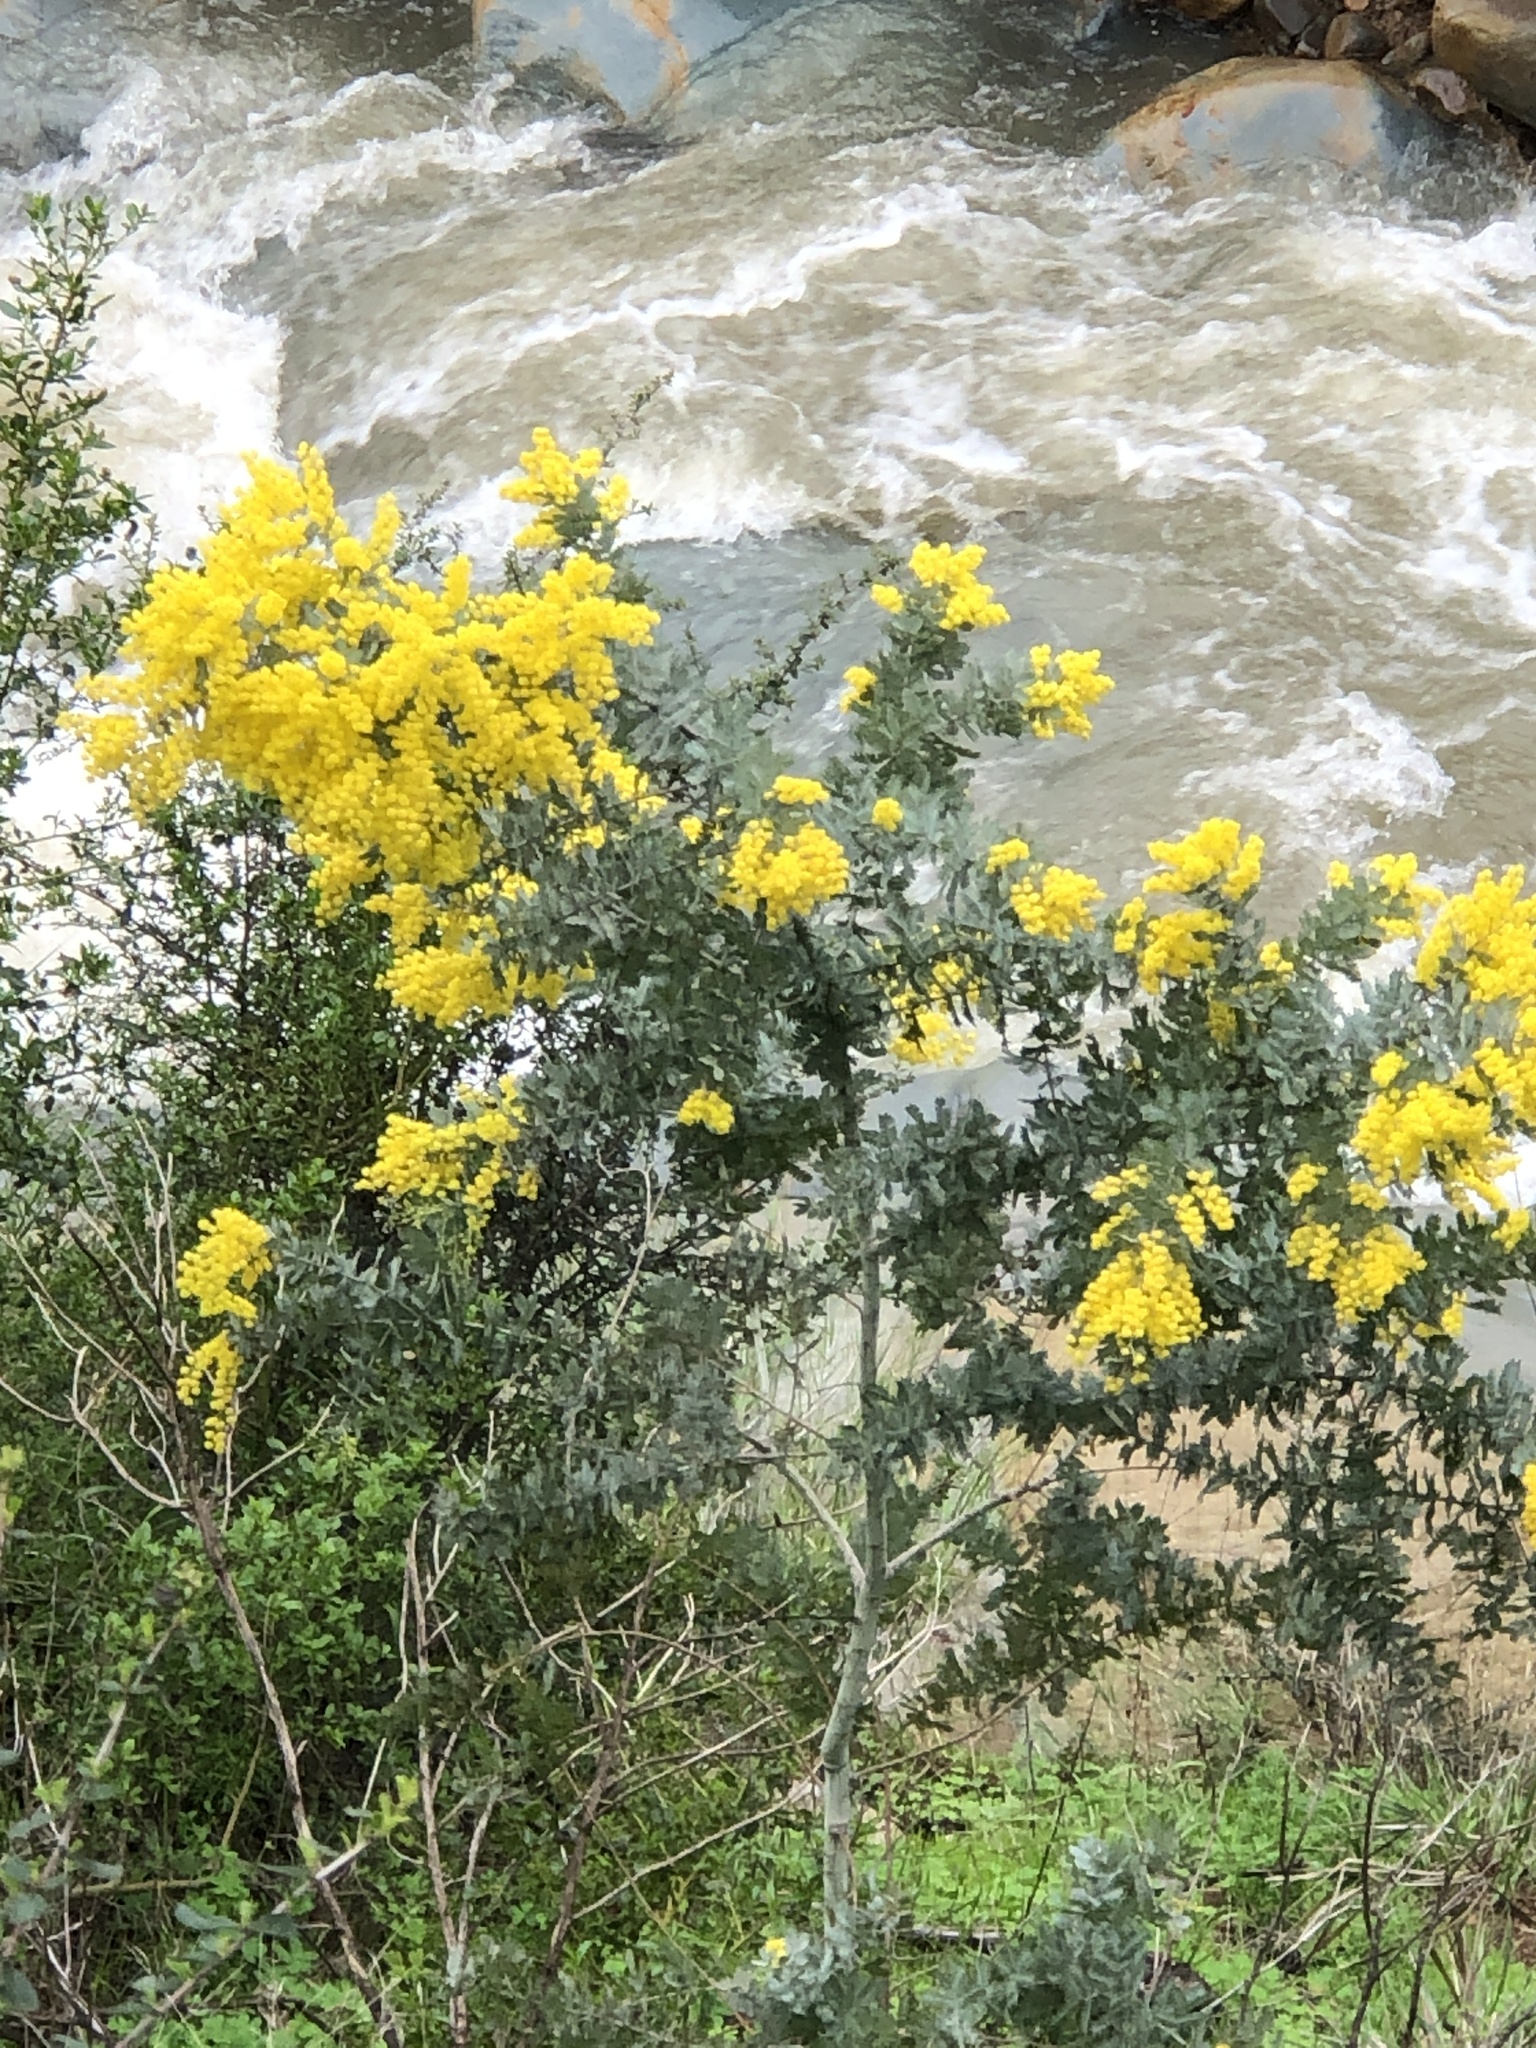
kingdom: Plantae
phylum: Tracheophyta
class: Magnoliopsida
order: Fabales
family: Fabaceae
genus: Acacia
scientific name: Acacia baileyana
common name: Cootamundra wattle
